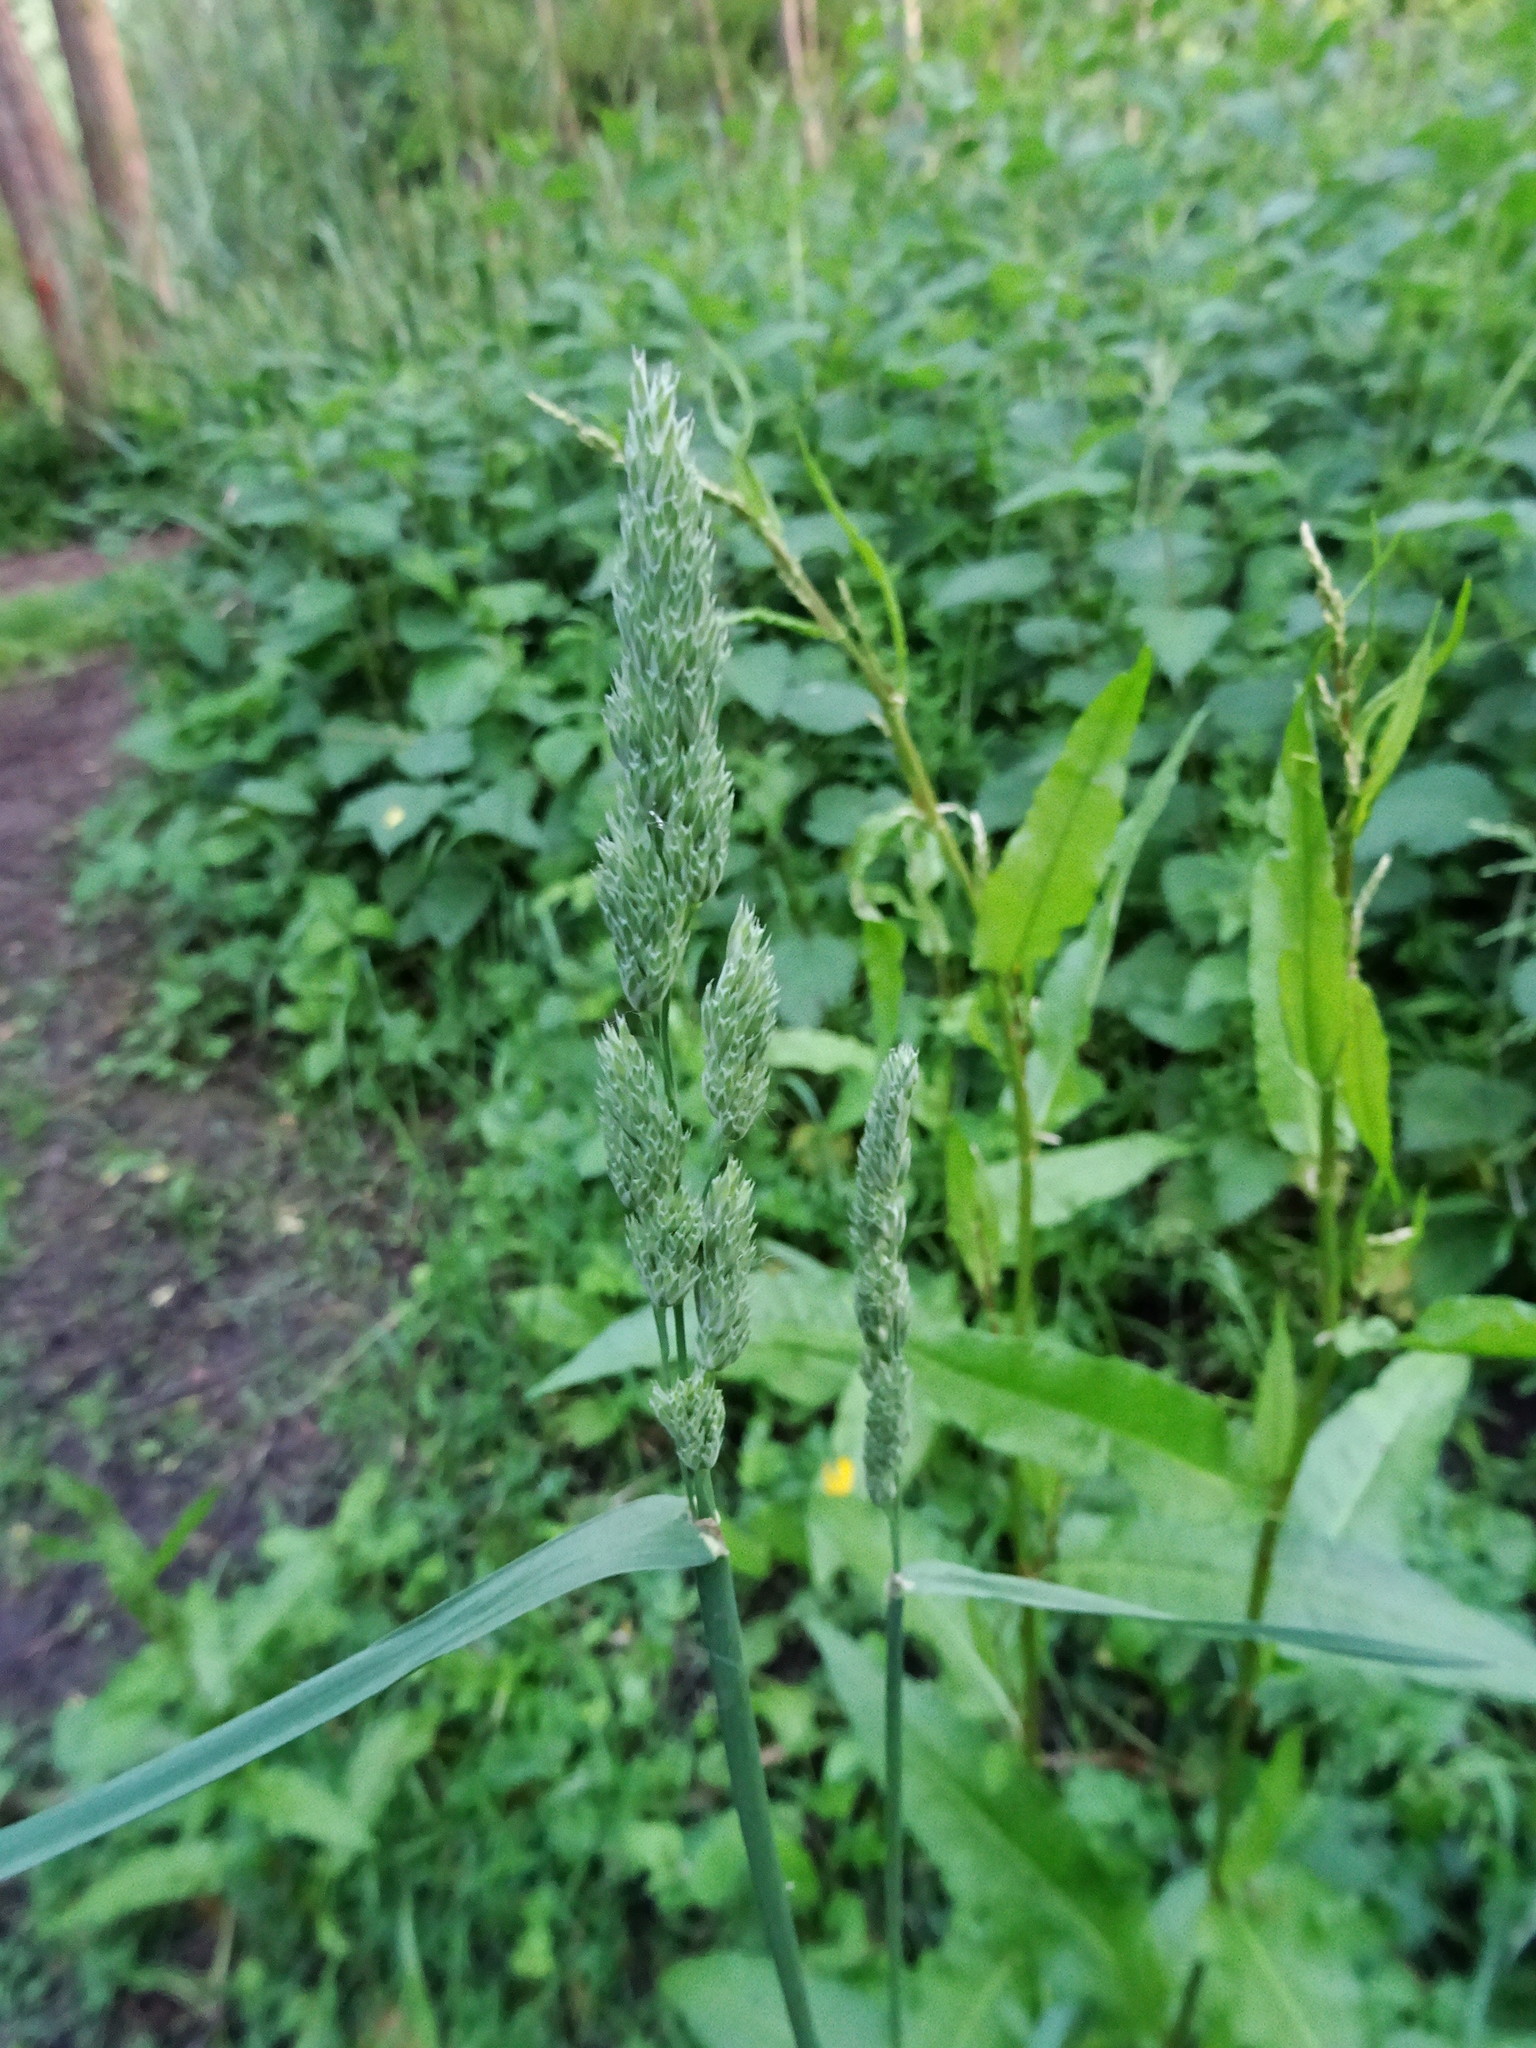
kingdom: Plantae
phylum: Tracheophyta
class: Liliopsida
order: Poales
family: Poaceae
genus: Dactylis
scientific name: Dactylis glomerata
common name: Orchardgrass
